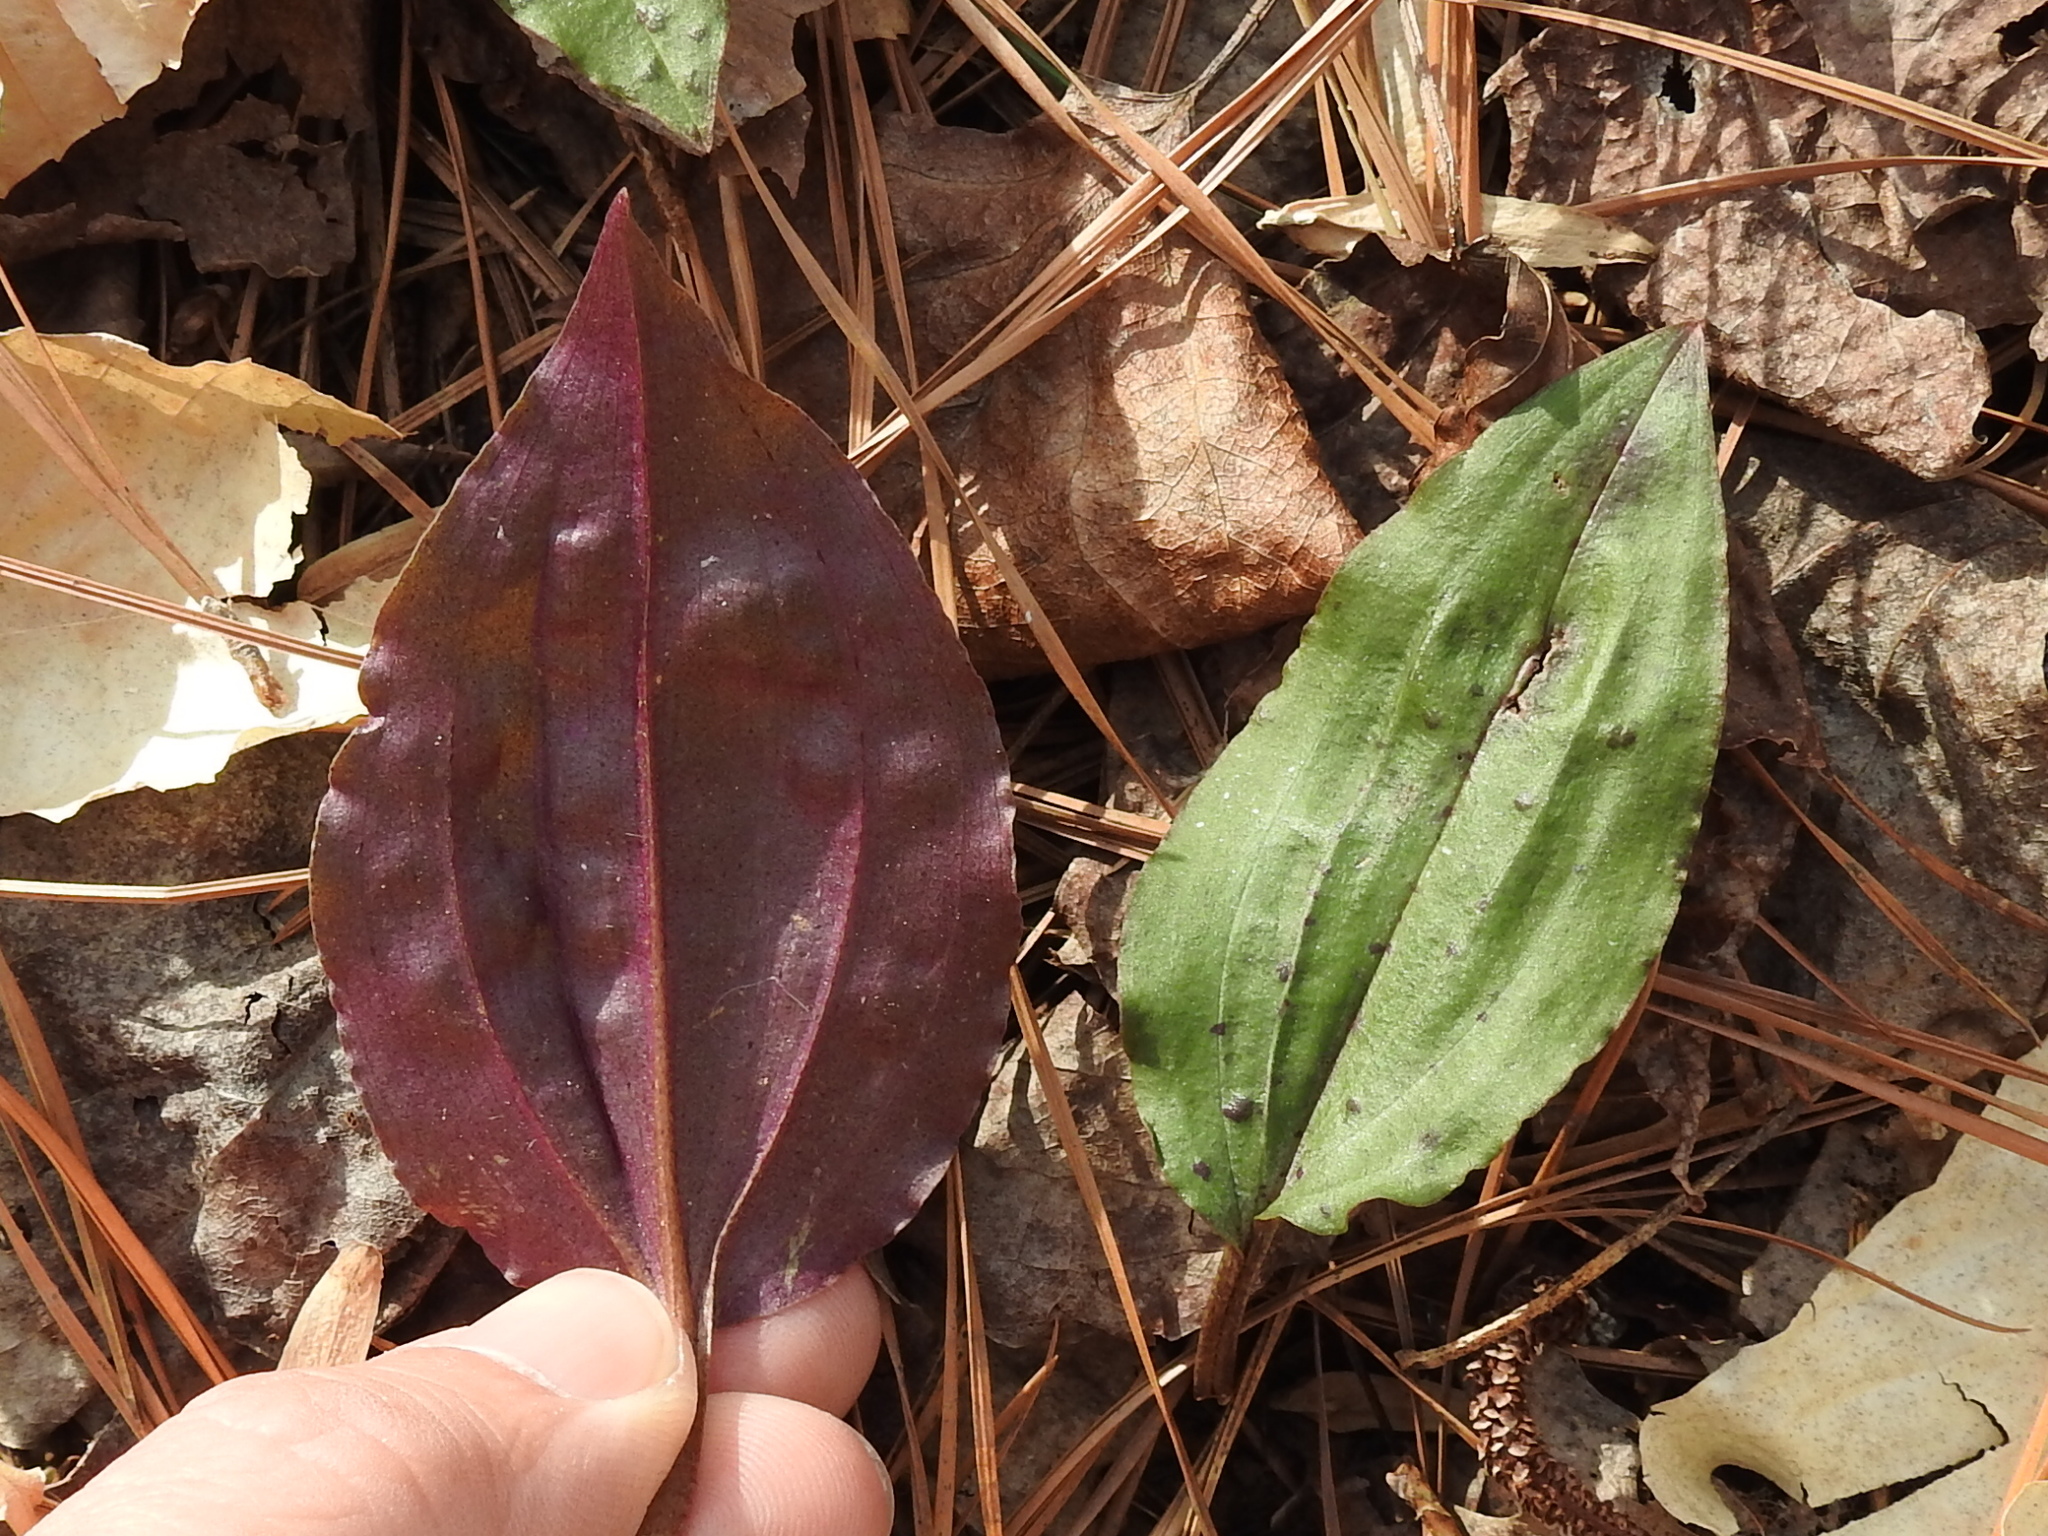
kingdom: Plantae
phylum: Tracheophyta
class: Liliopsida
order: Asparagales
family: Orchidaceae
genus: Tipularia
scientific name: Tipularia discolor
